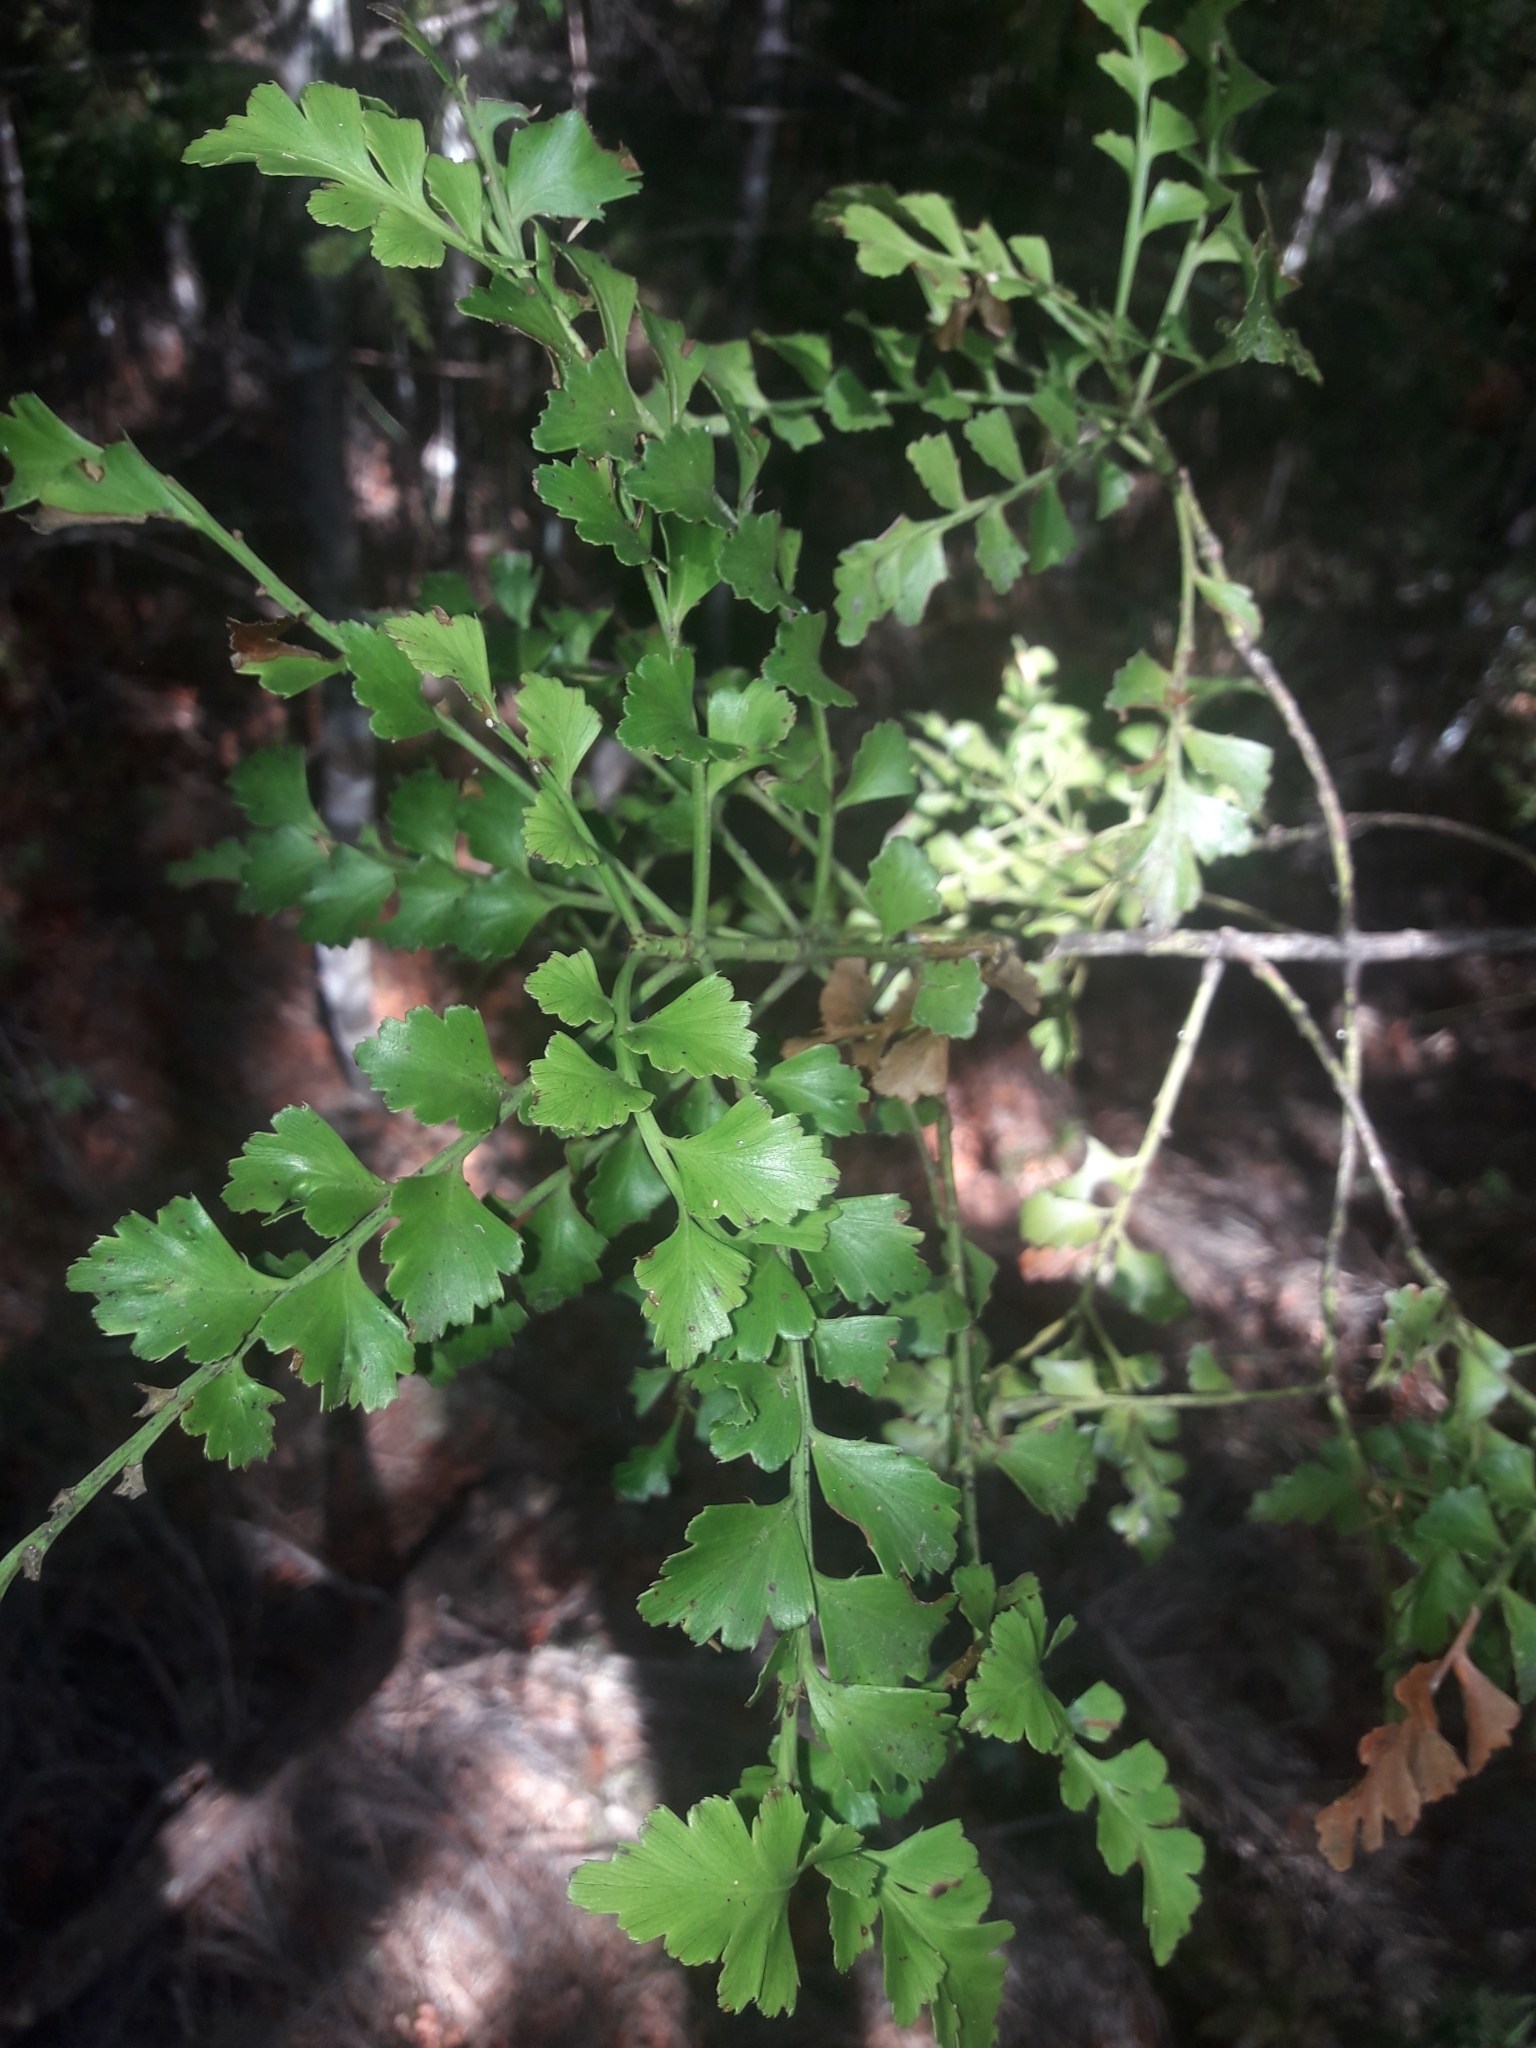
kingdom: Plantae
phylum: Tracheophyta
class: Pinopsida
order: Pinales
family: Phyllocladaceae
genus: Phyllocladus
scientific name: Phyllocladus trichomanoides
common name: Celery pine
